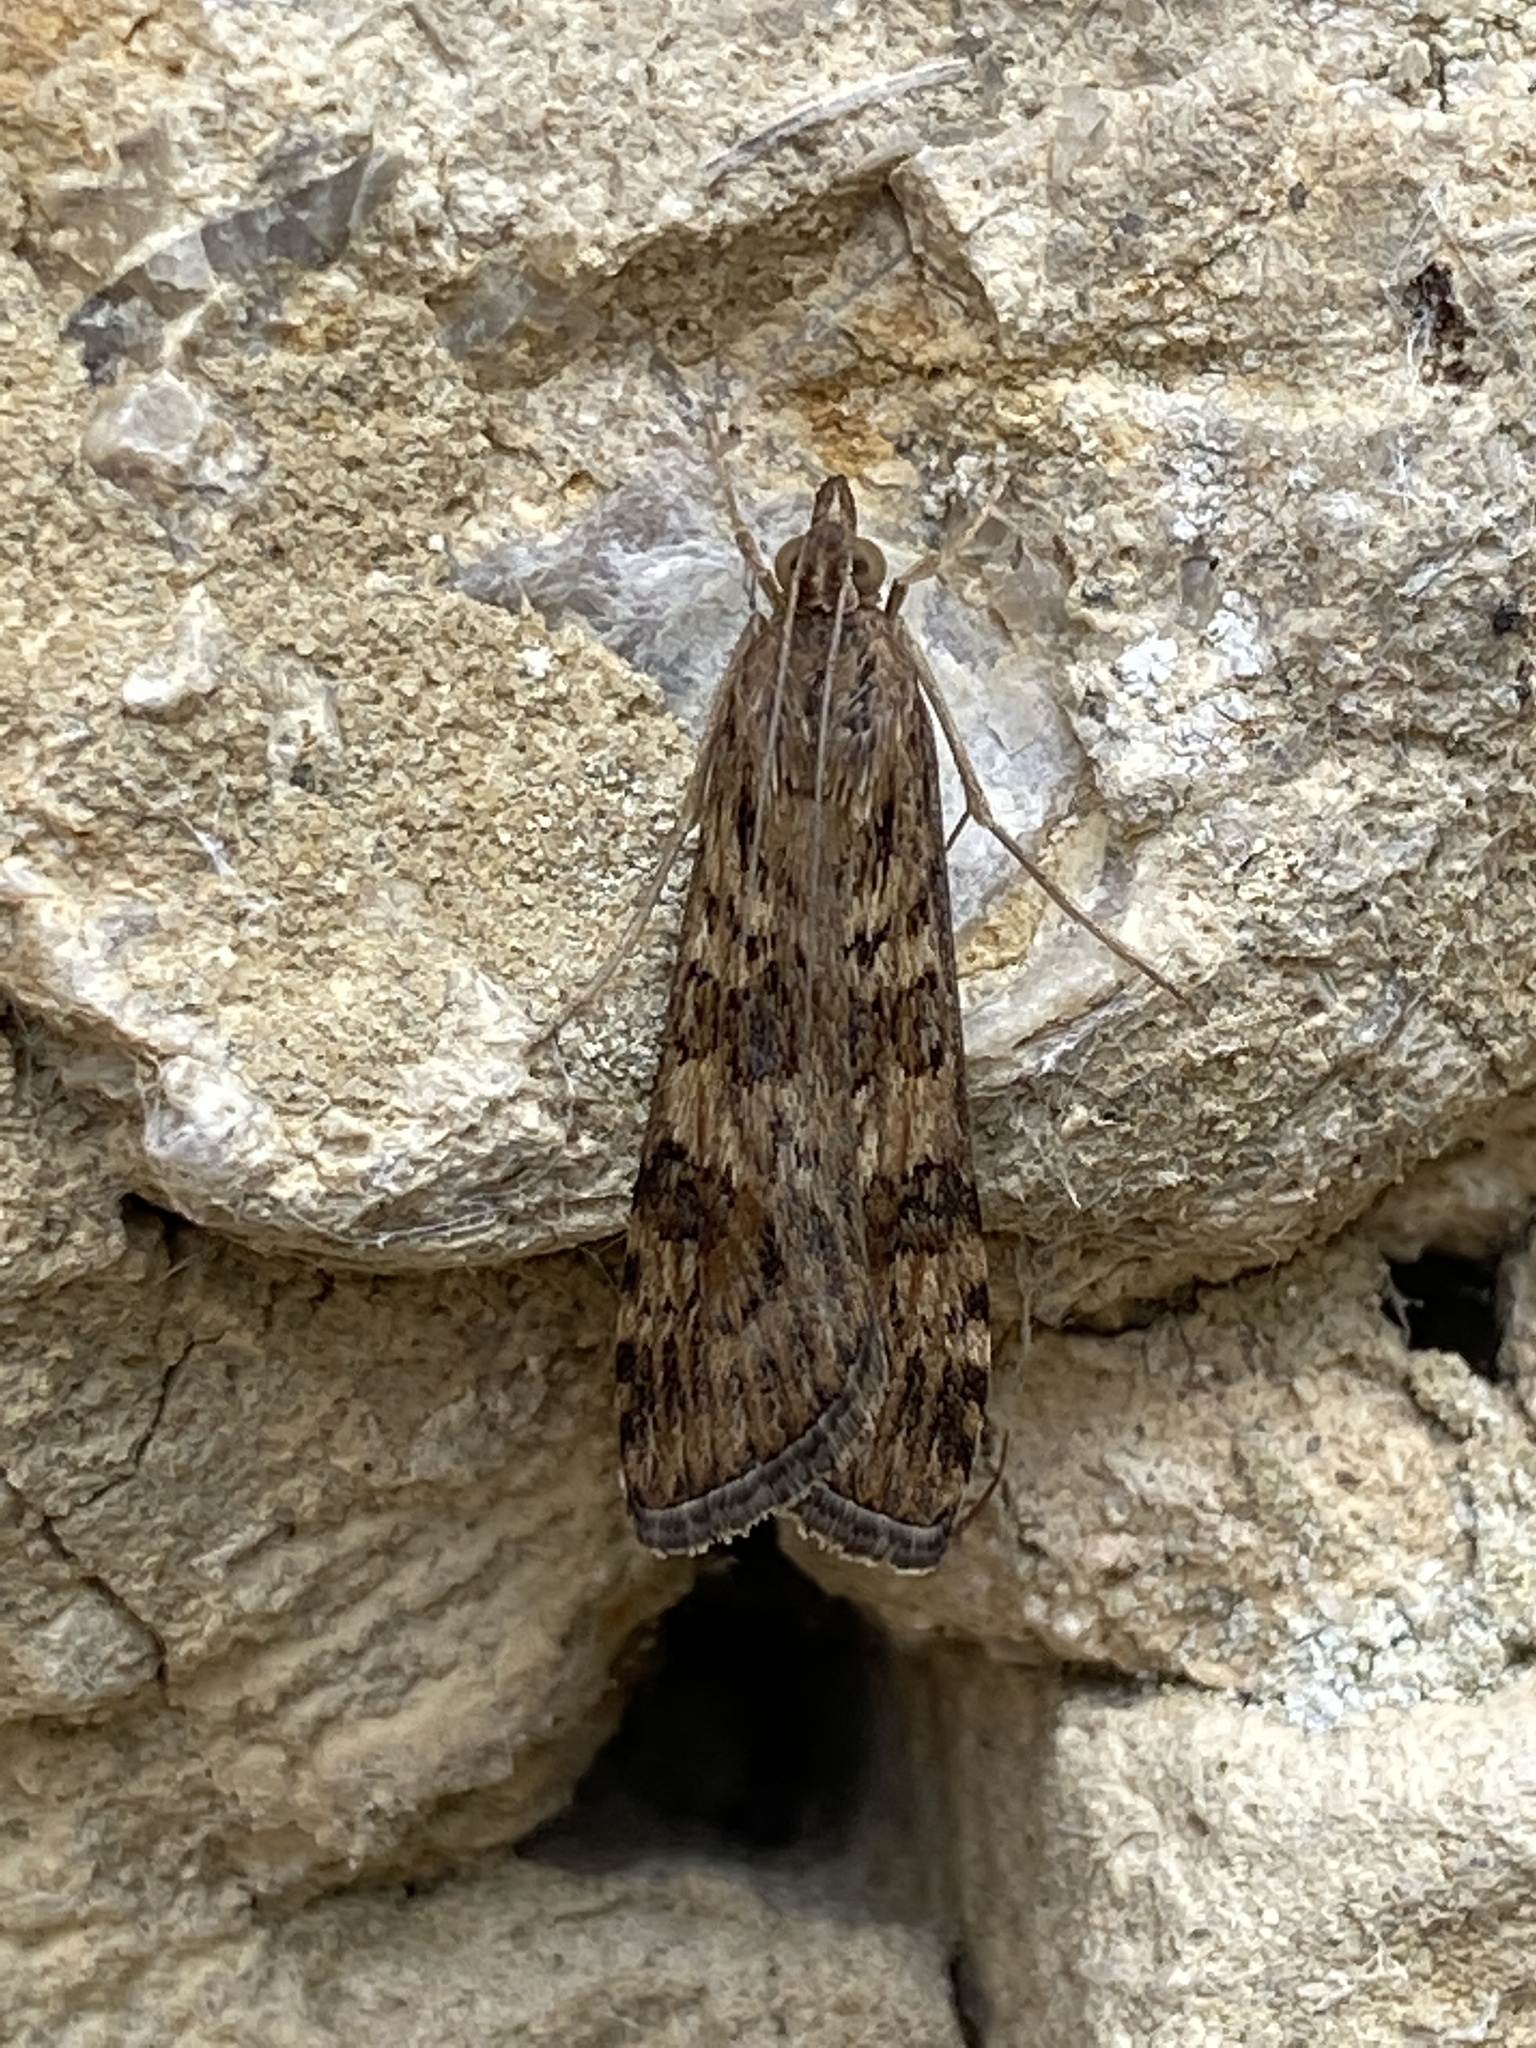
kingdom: Animalia
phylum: Arthropoda
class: Insecta
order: Lepidoptera
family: Crambidae
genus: Nomophila
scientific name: Nomophila noctuella
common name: Rush veneer
